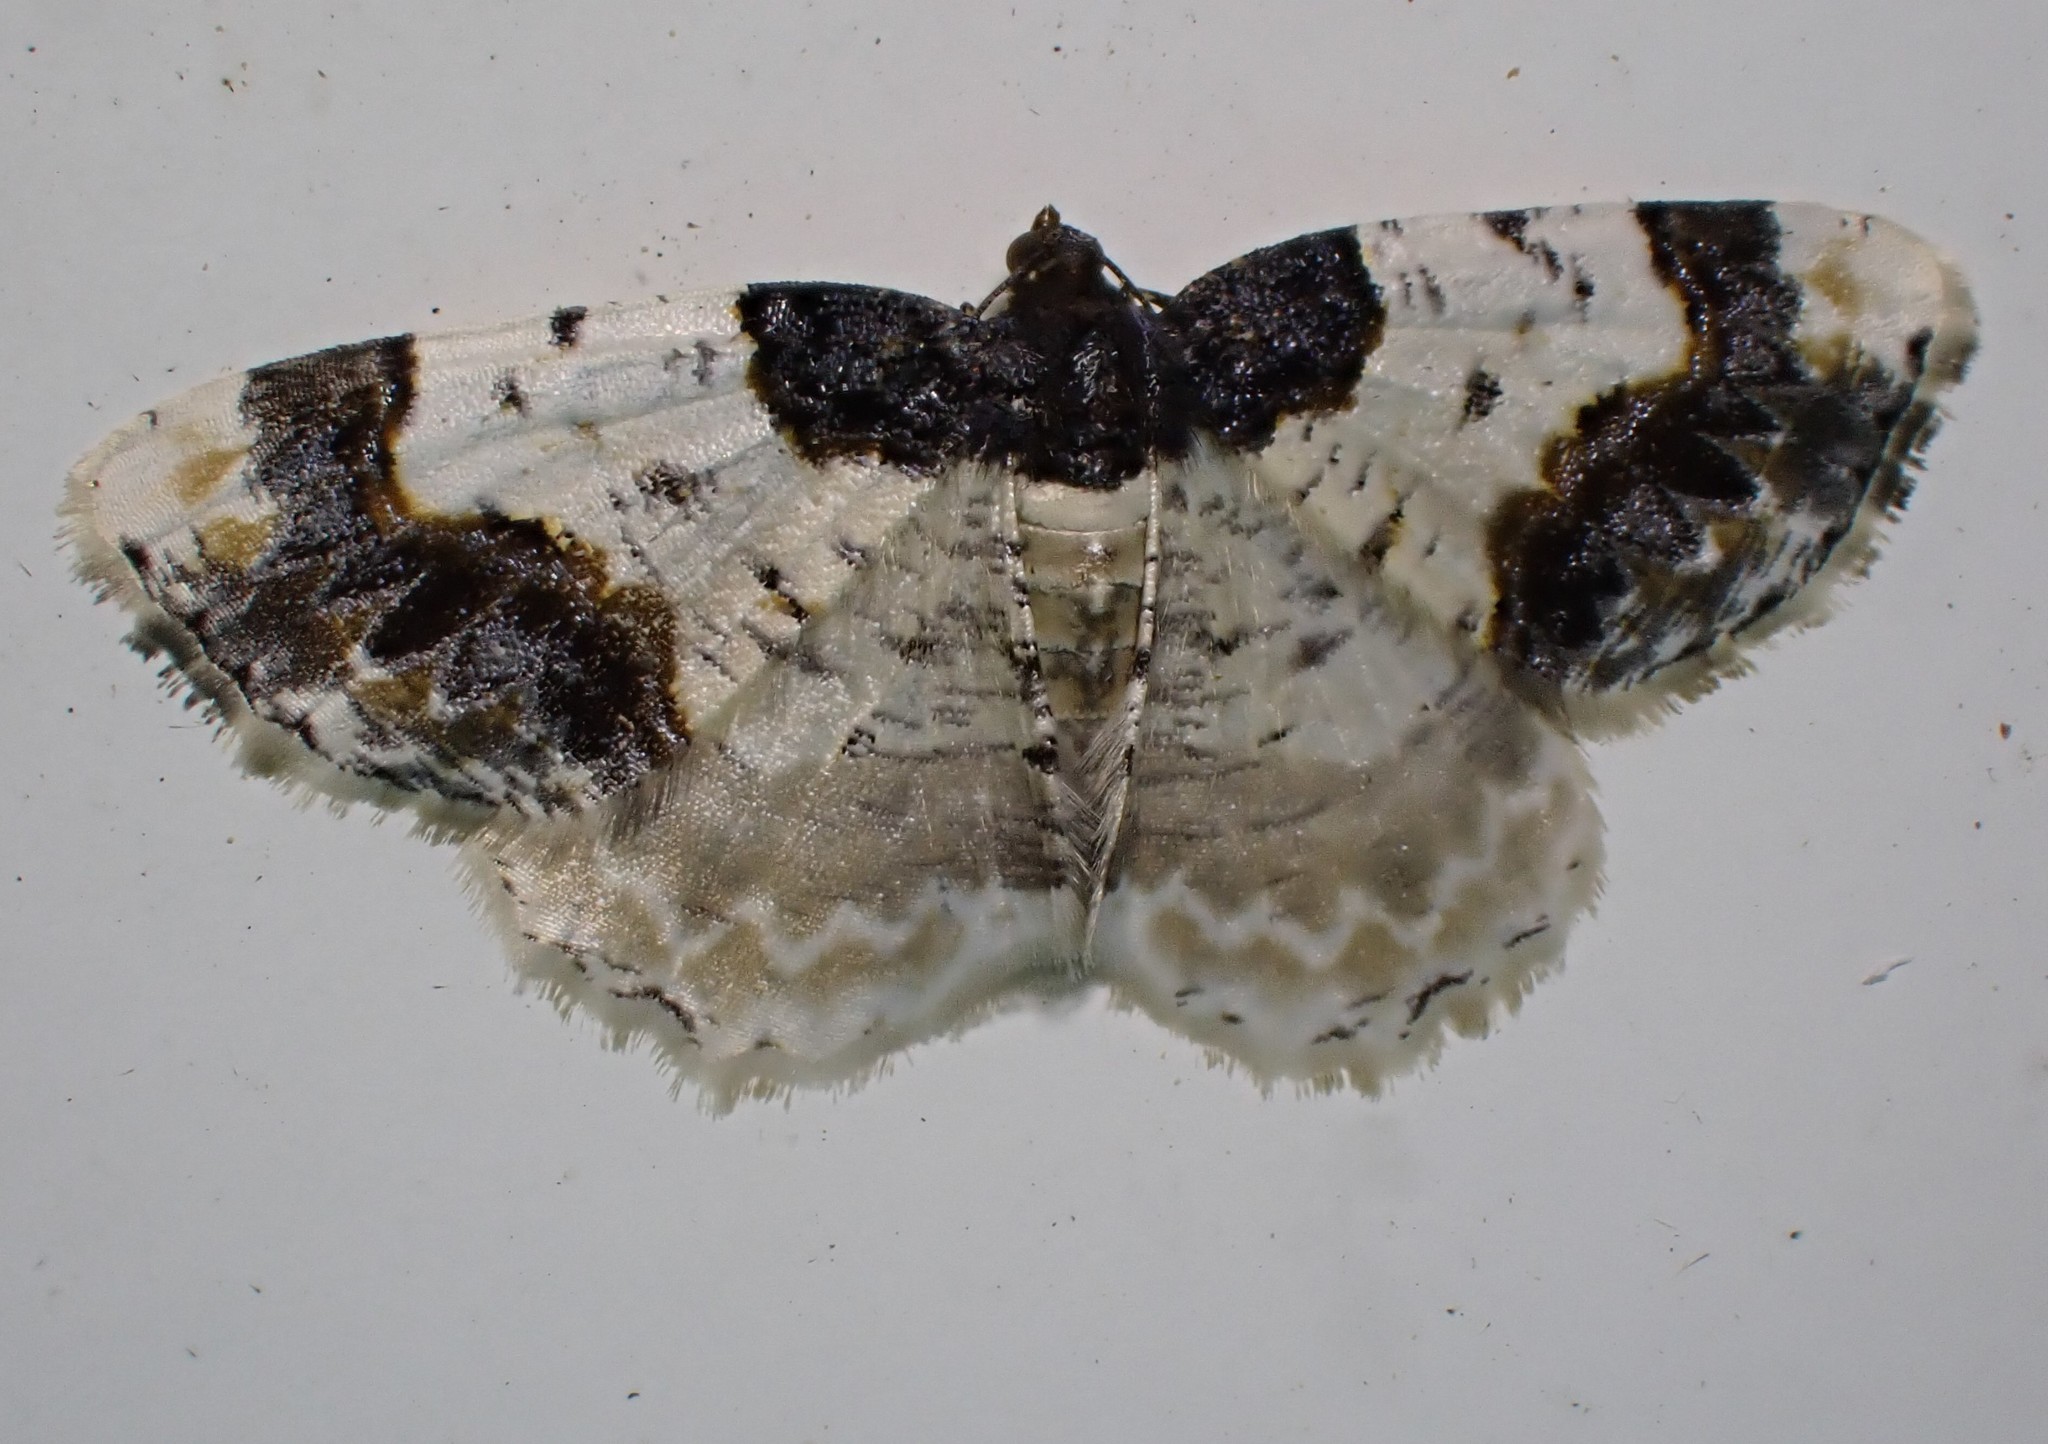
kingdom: Animalia
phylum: Arthropoda
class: Insecta
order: Lepidoptera
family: Geometridae
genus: Ligdia
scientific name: Ligdia adustata
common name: Scorched carpet
